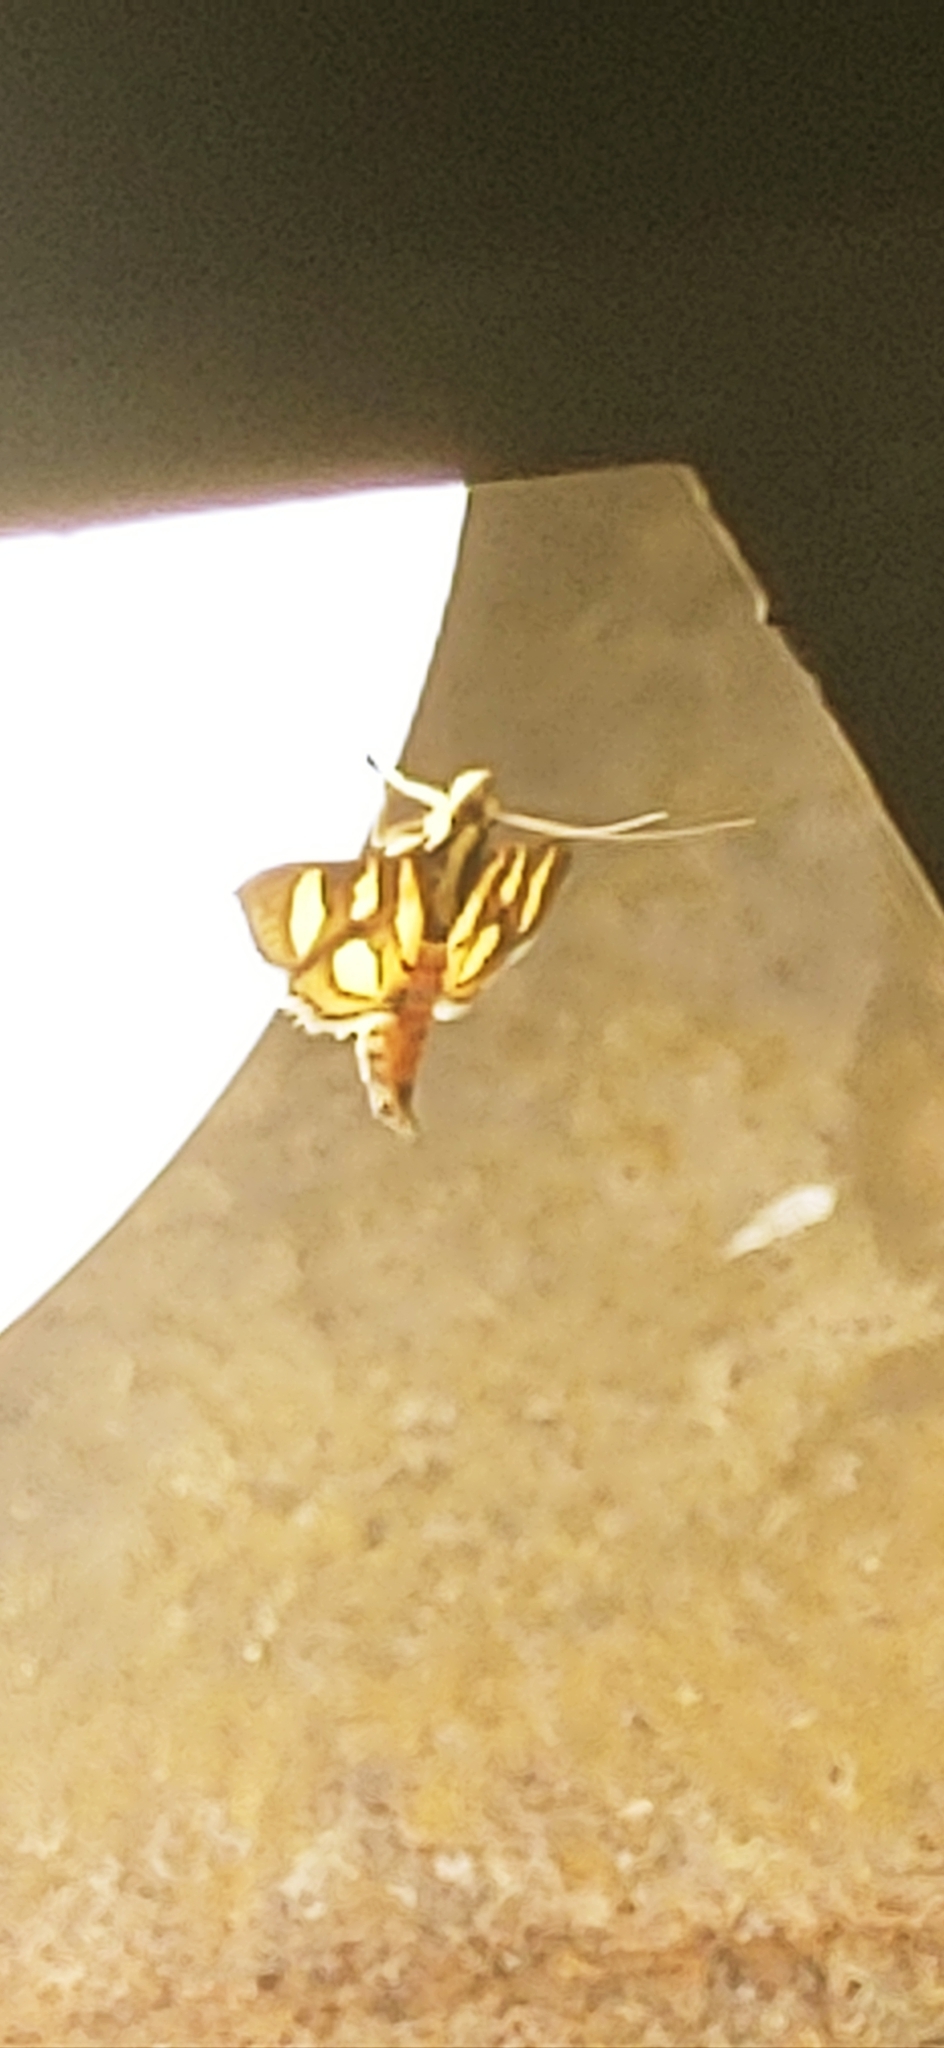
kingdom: Animalia
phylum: Arthropoda
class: Insecta
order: Lepidoptera
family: Crambidae
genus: Syngamia
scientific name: Syngamia florella
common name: Orange-spotted flower moth
